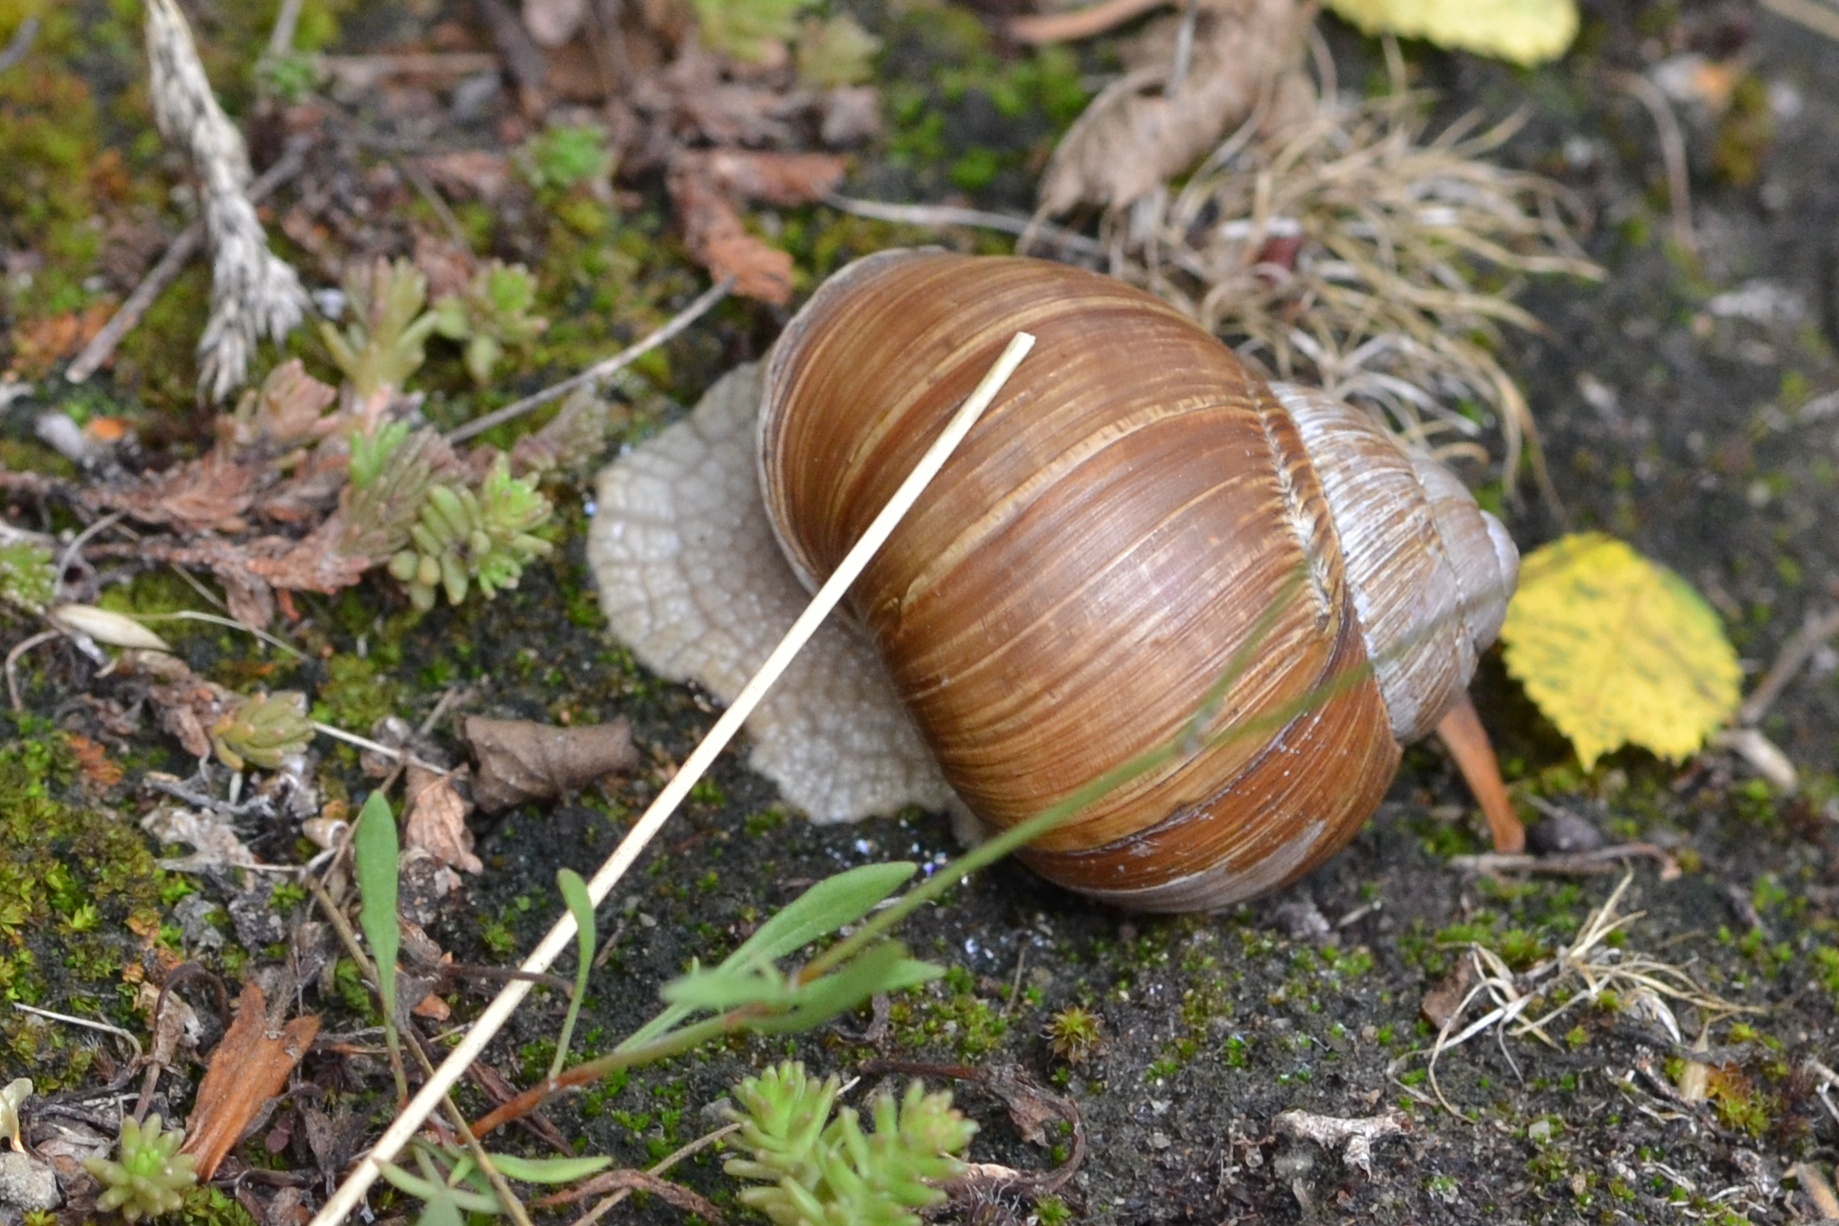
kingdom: Animalia
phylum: Mollusca
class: Gastropoda
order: Stylommatophora
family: Helicidae
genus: Helix
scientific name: Helix pomatia
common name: Roman snail
